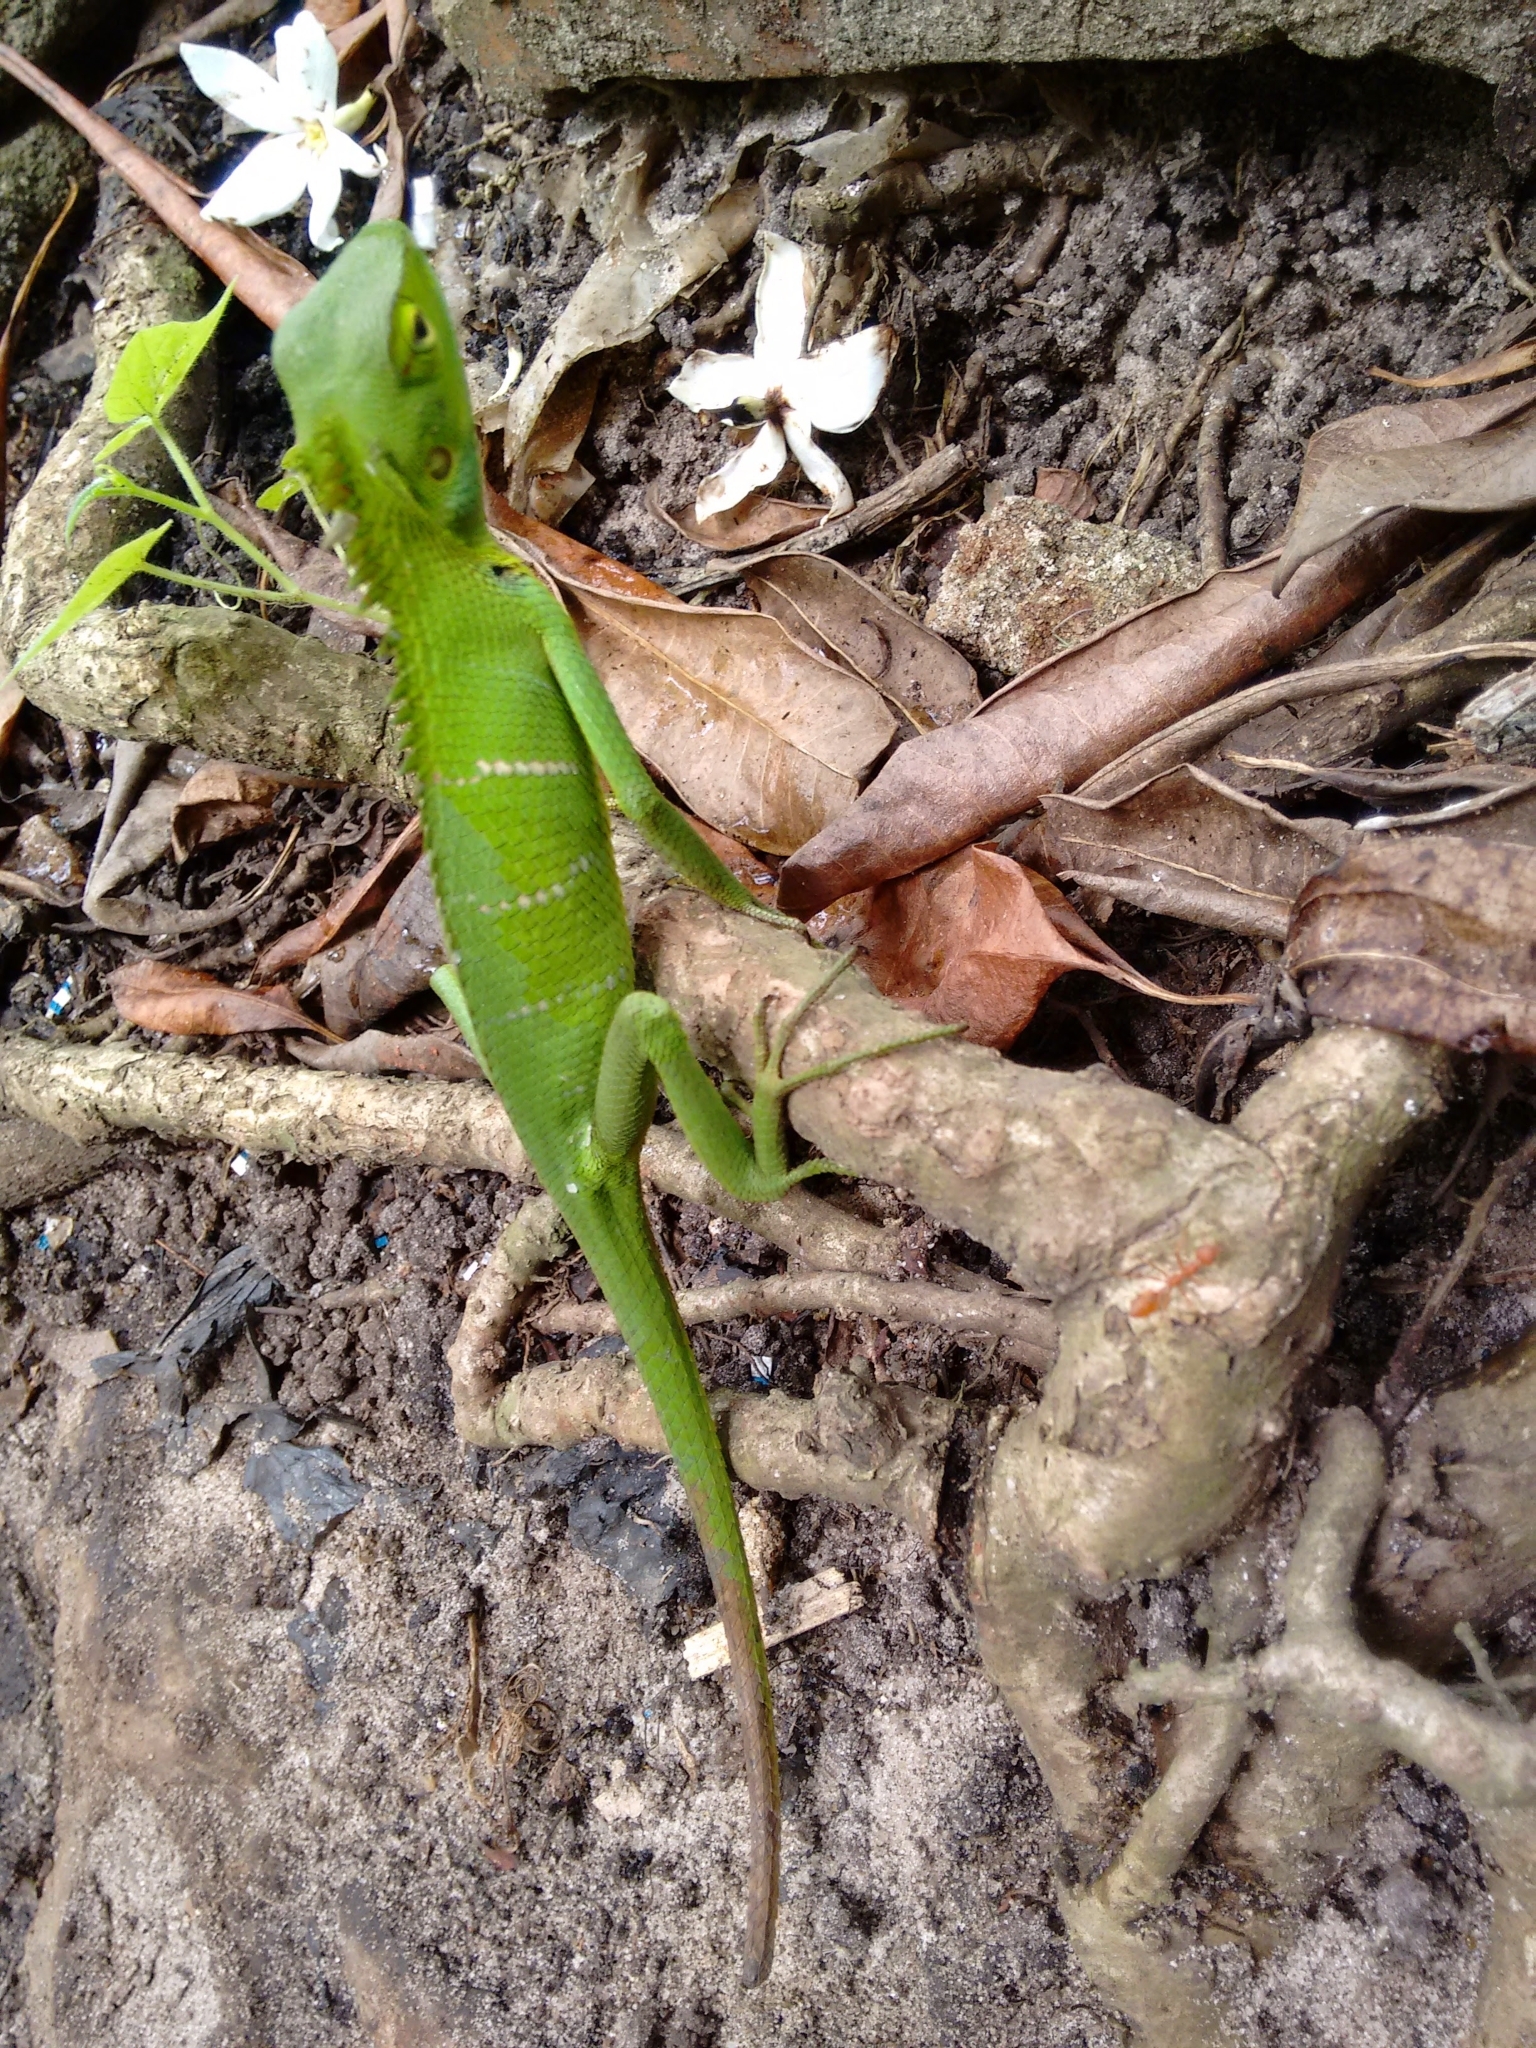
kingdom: Animalia
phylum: Chordata
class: Squamata
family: Agamidae
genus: Calotes
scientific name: Calotes calotes
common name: Common green forest lizard
